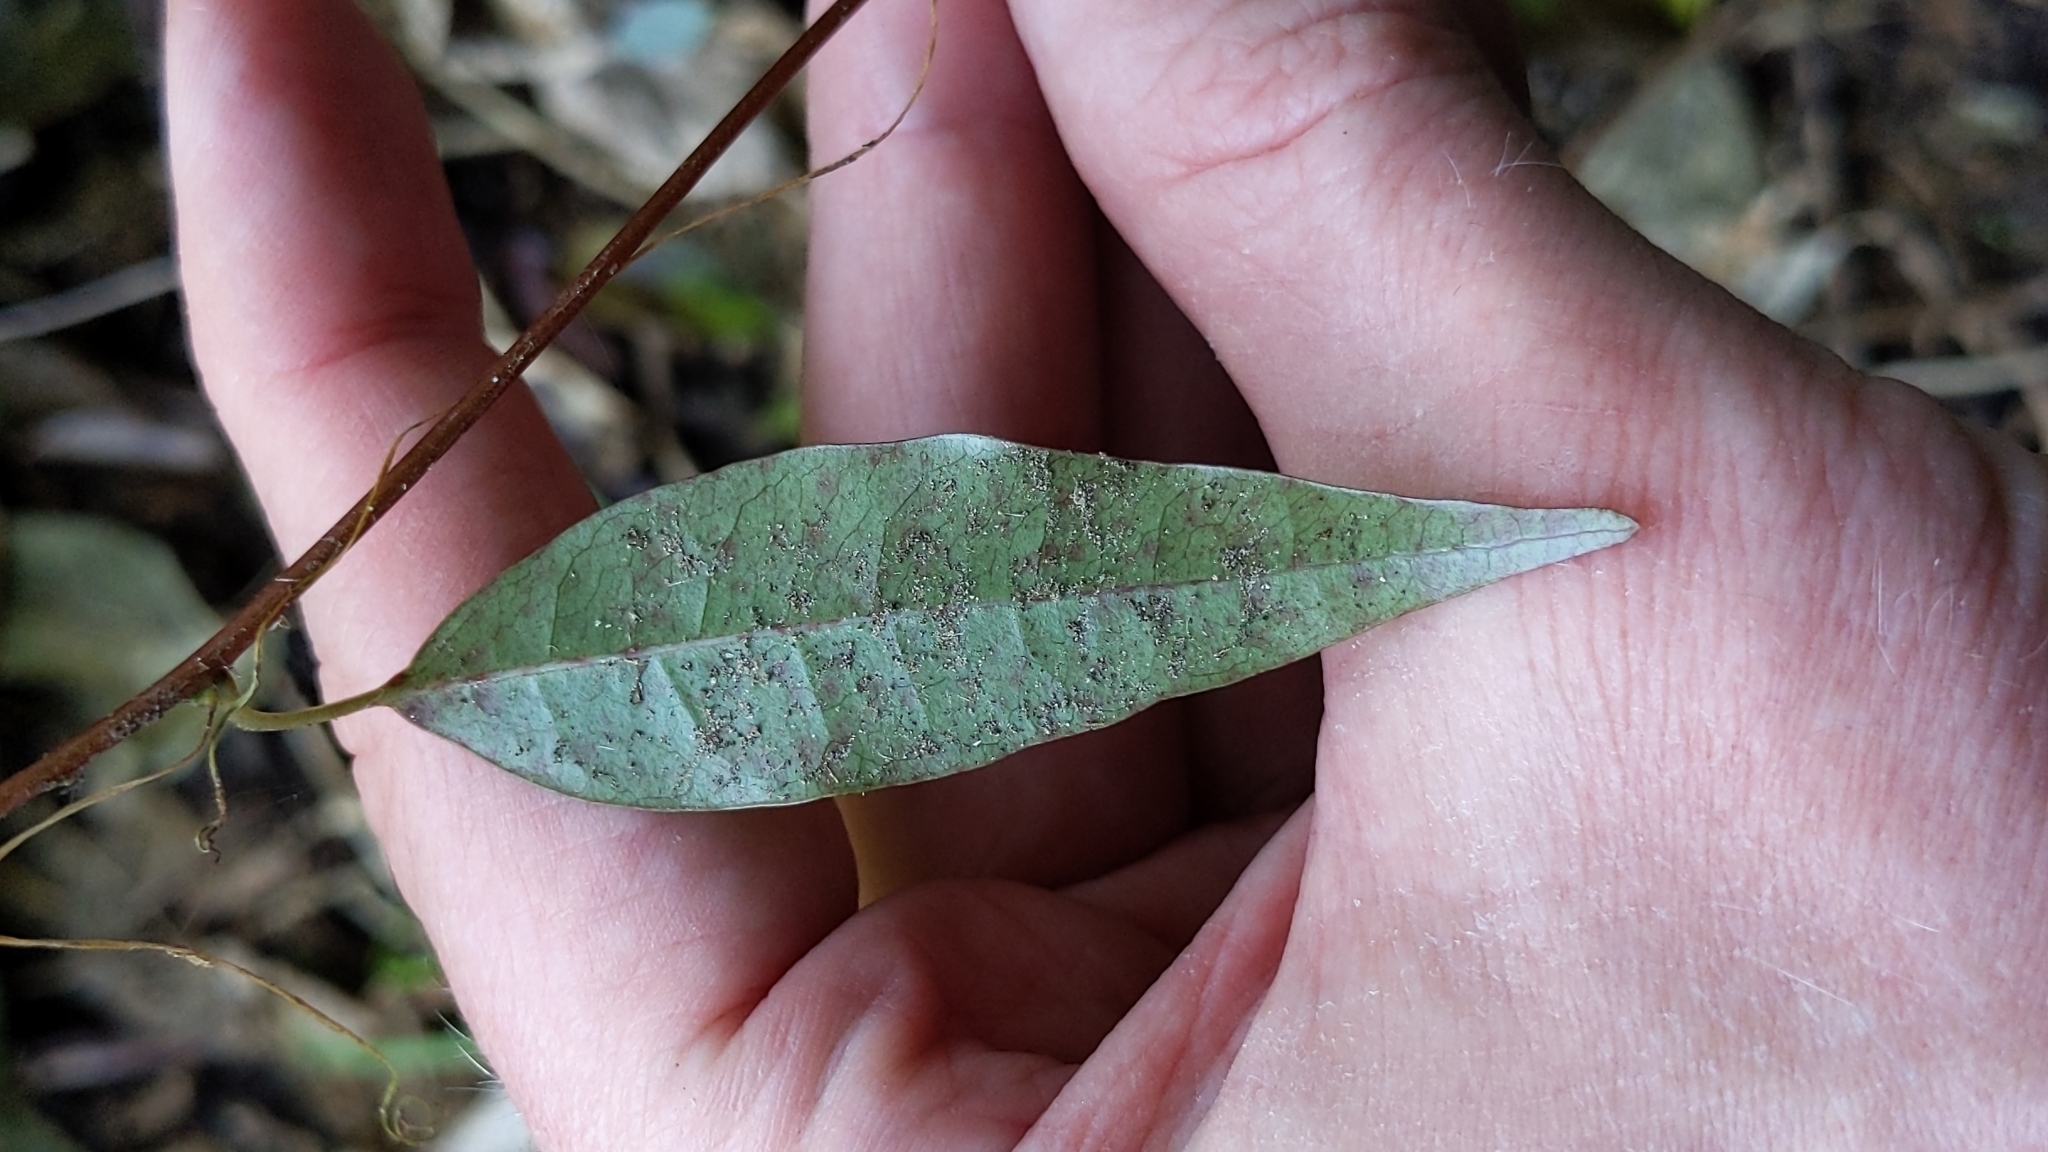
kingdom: Plantae
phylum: Tracheophyta
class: Magnoliopsida
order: Malpighiales
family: Passifloraceae
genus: Passiflora
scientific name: Passiflora tetrandra
